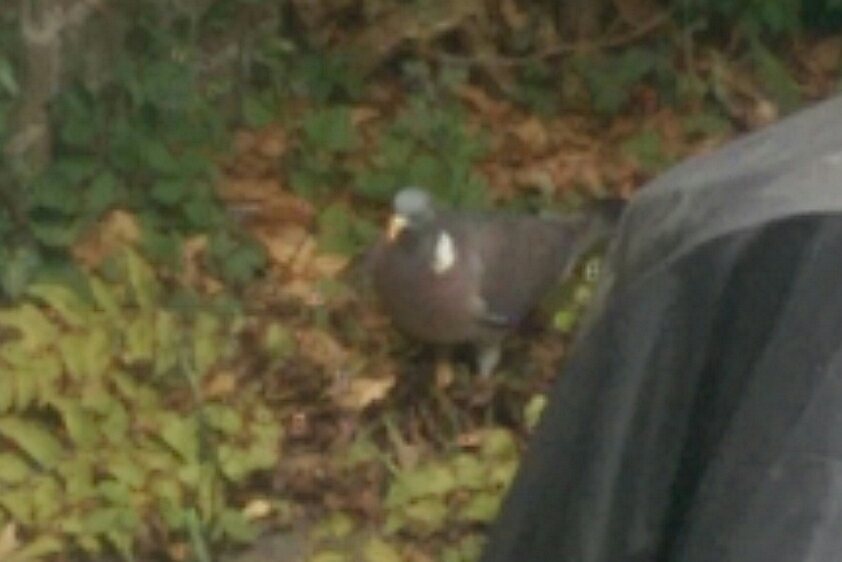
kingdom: Animalia
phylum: Chordata
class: Aves
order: Columbiformes
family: Columbidae
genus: Columba
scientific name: Columba palumbus
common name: Common wood pigeon
